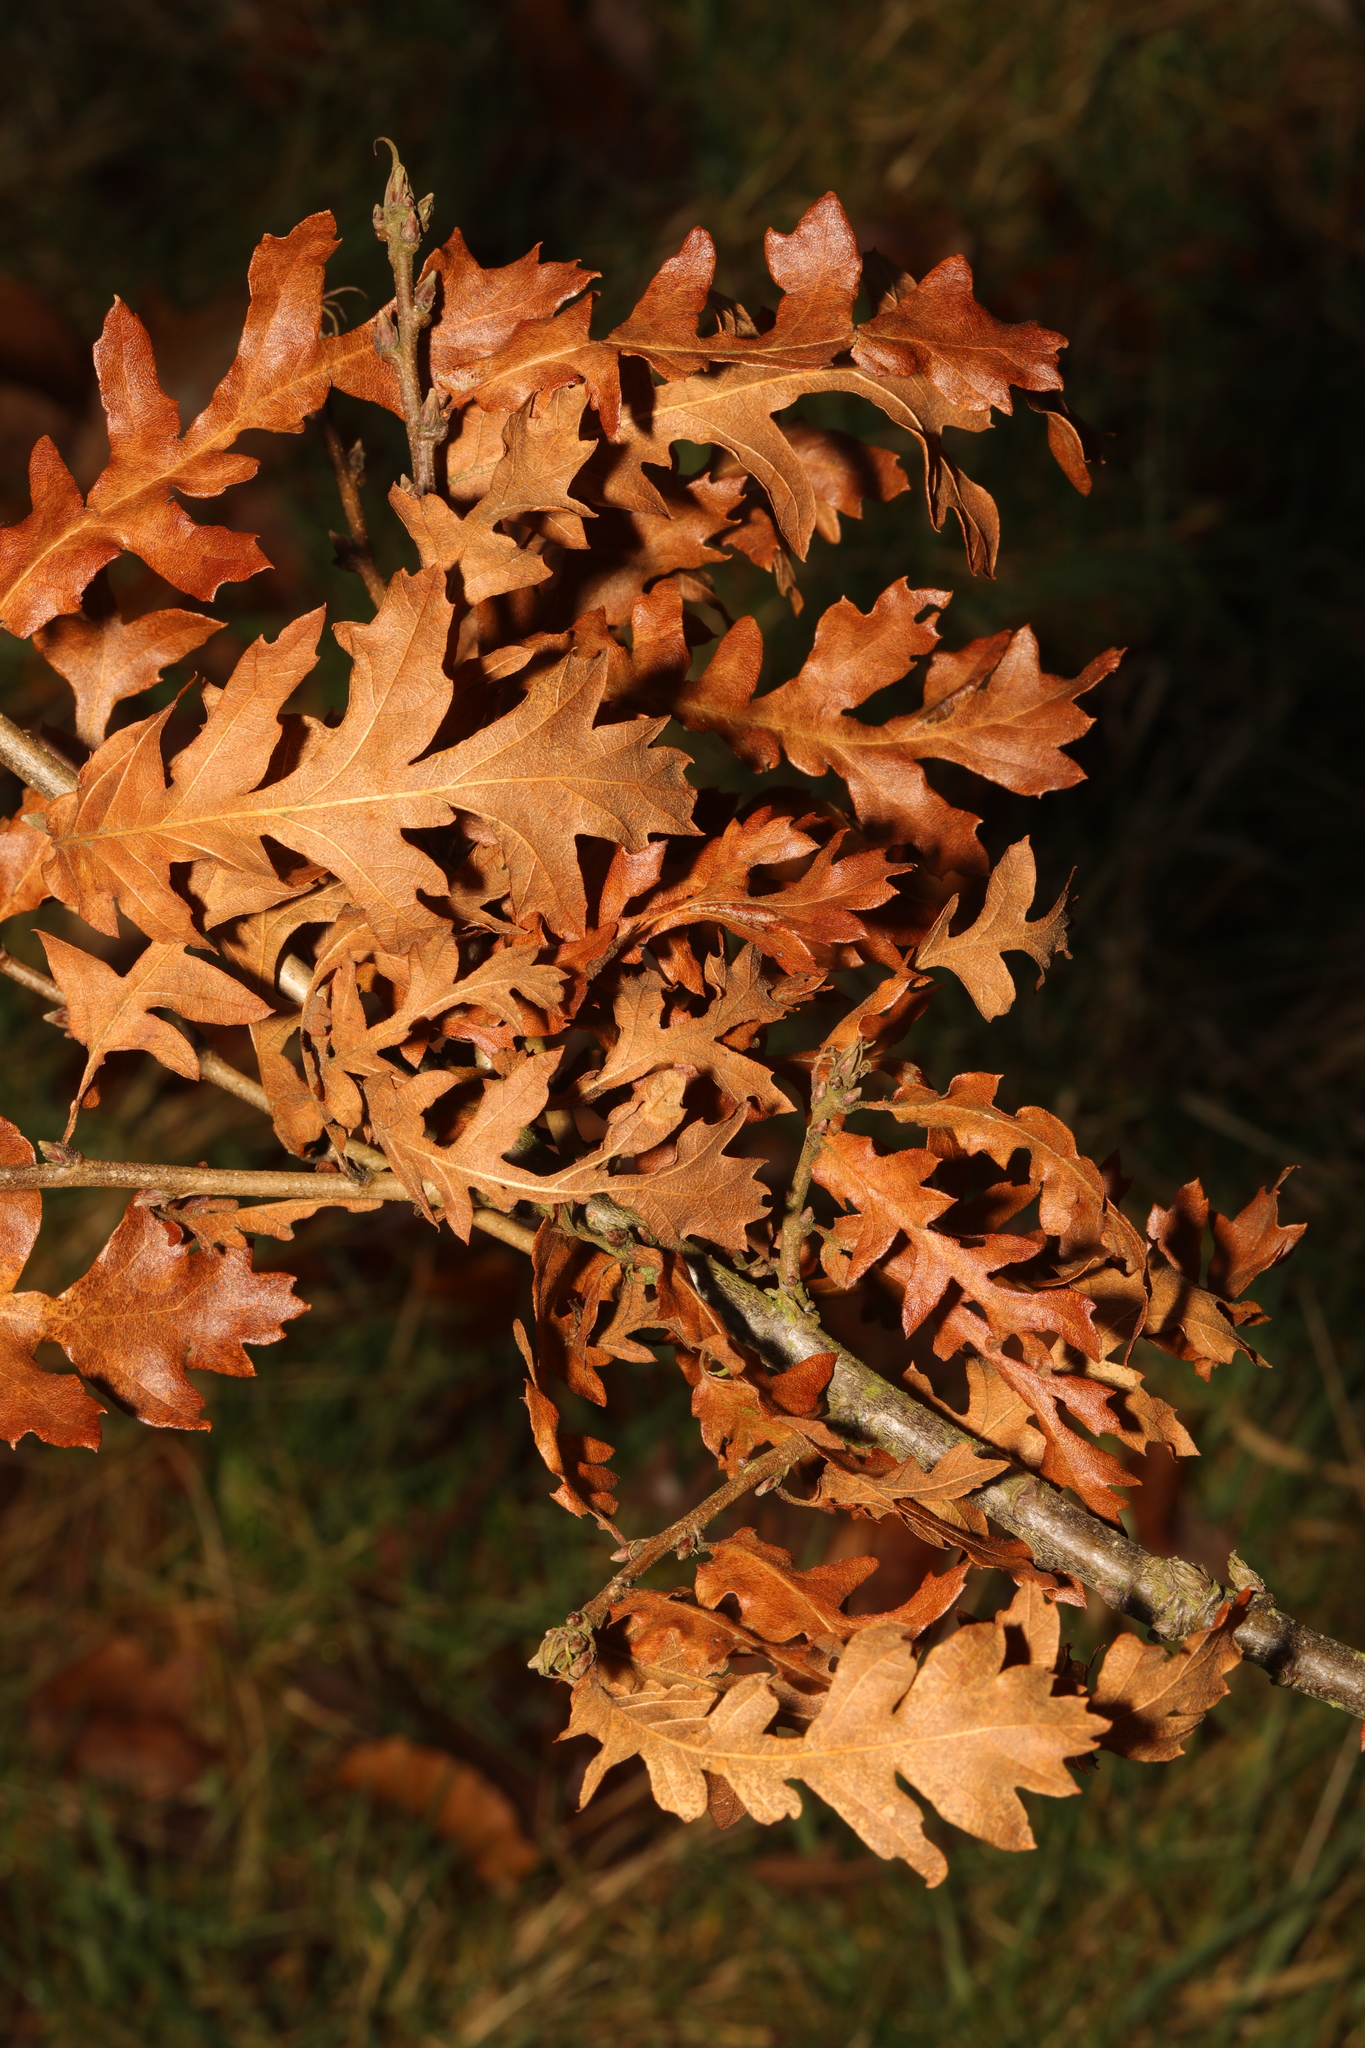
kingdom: Plantae
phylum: Tracheophyta
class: Magnoliopsida
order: Fagales
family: Fagaceae
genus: Quercus
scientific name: Quercus cerris
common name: Turkey oak
